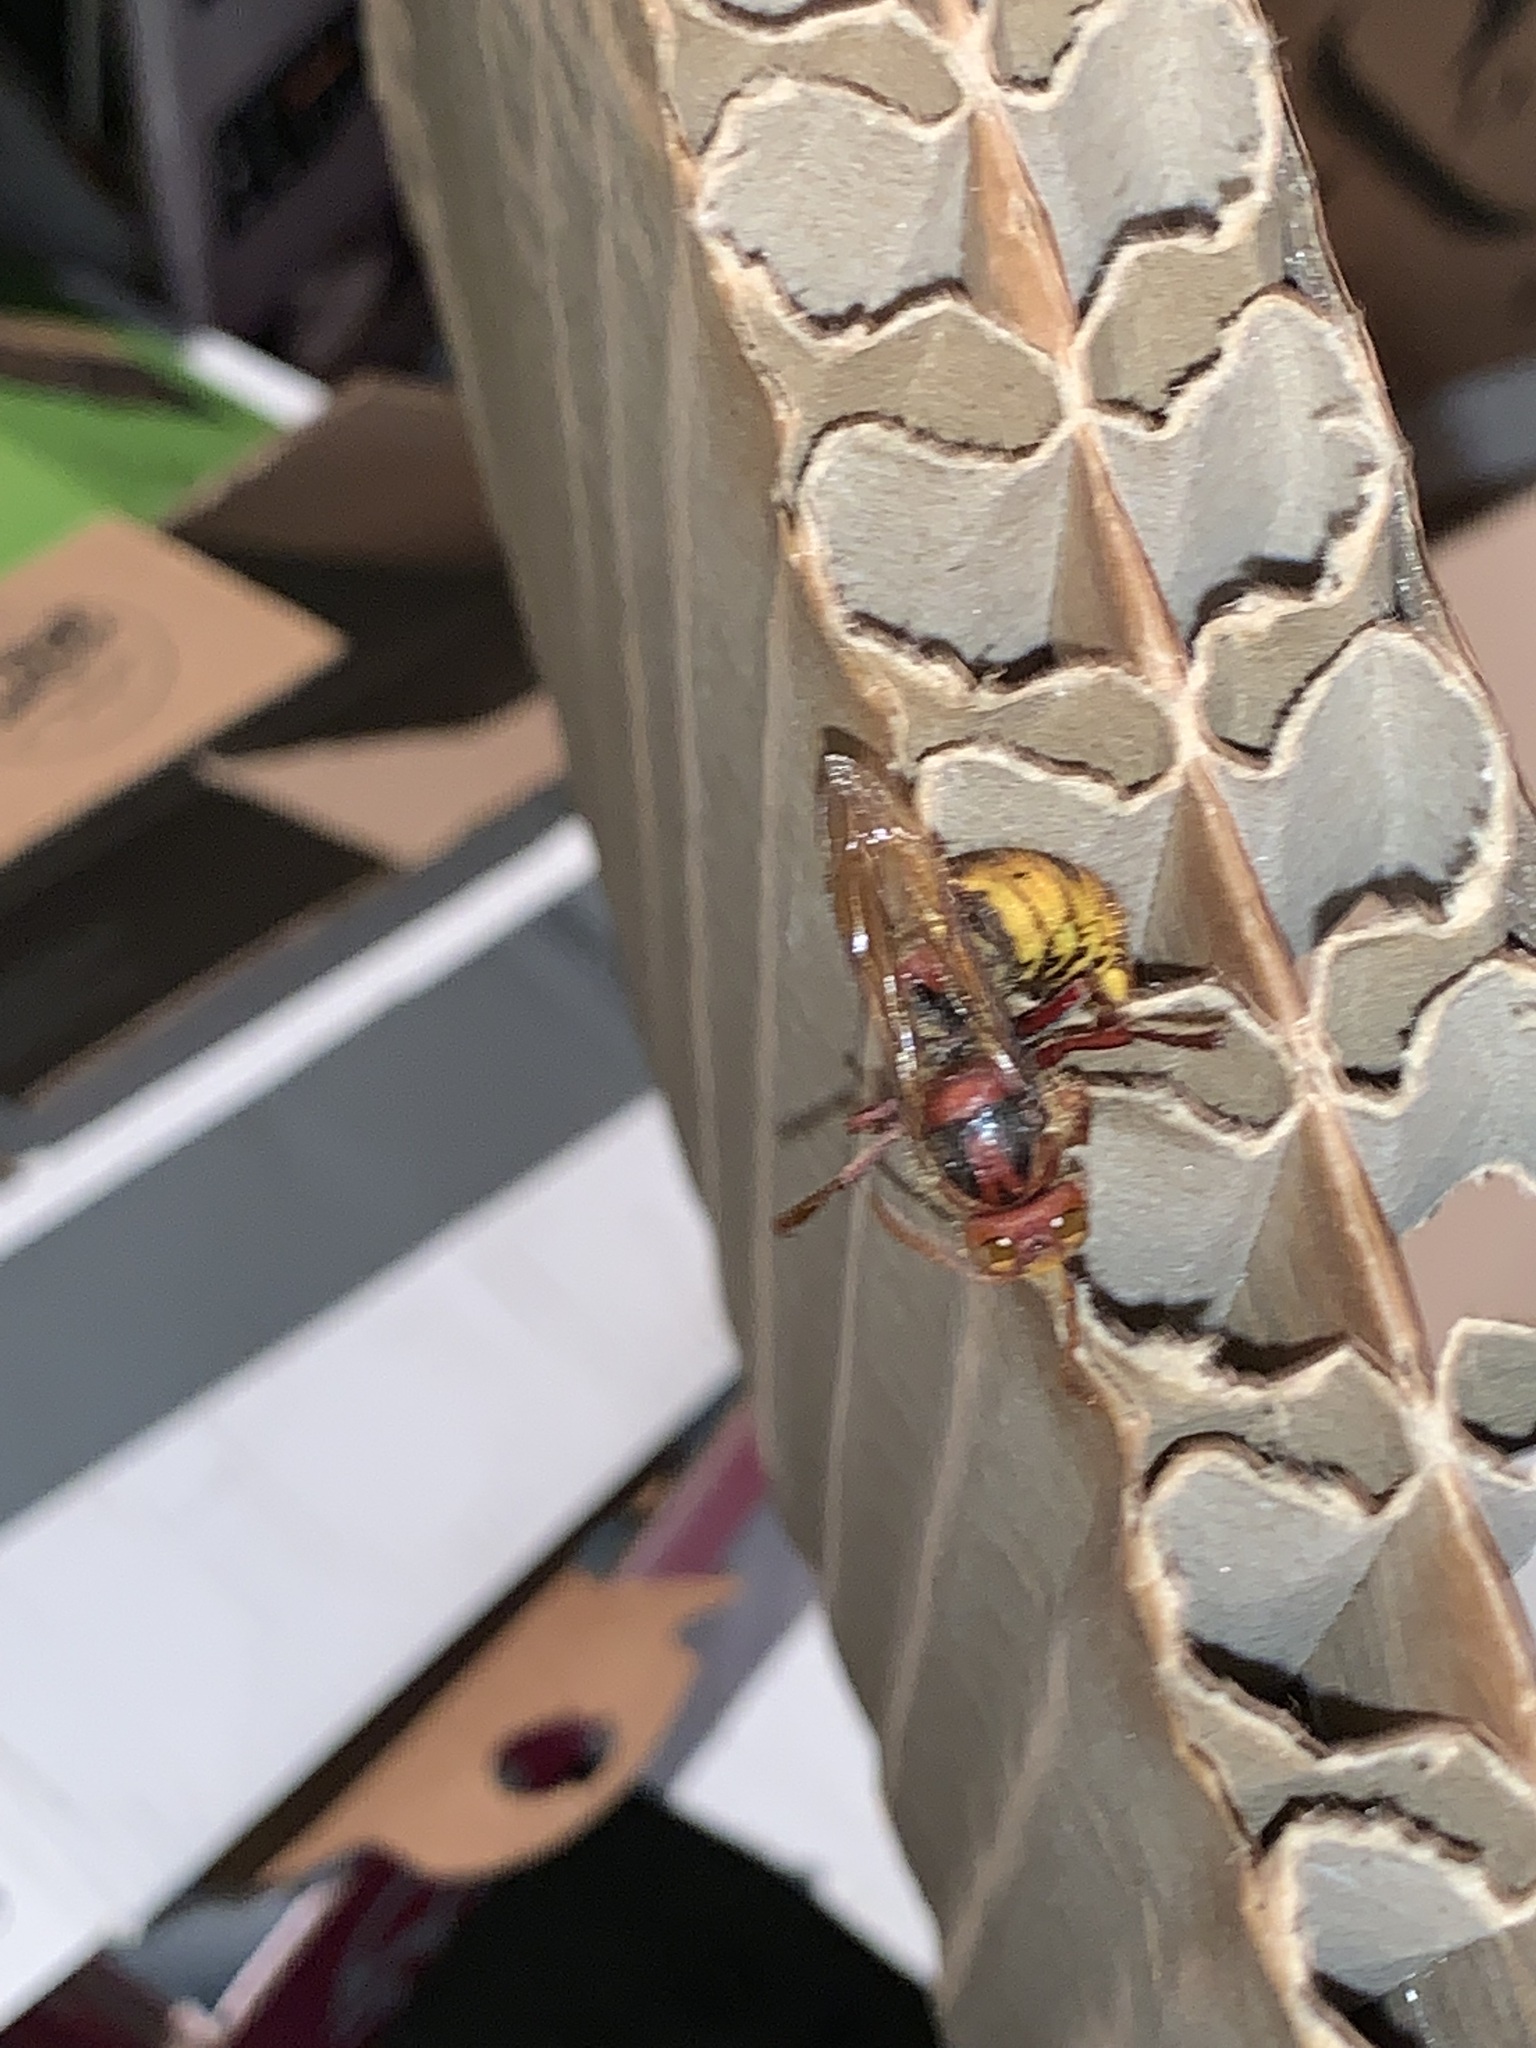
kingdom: Animalia
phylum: Arthropoda
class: Insecta
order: Hymenoptera
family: Vespidae
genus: Vespa
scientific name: Vespa crabro
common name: Hornet
